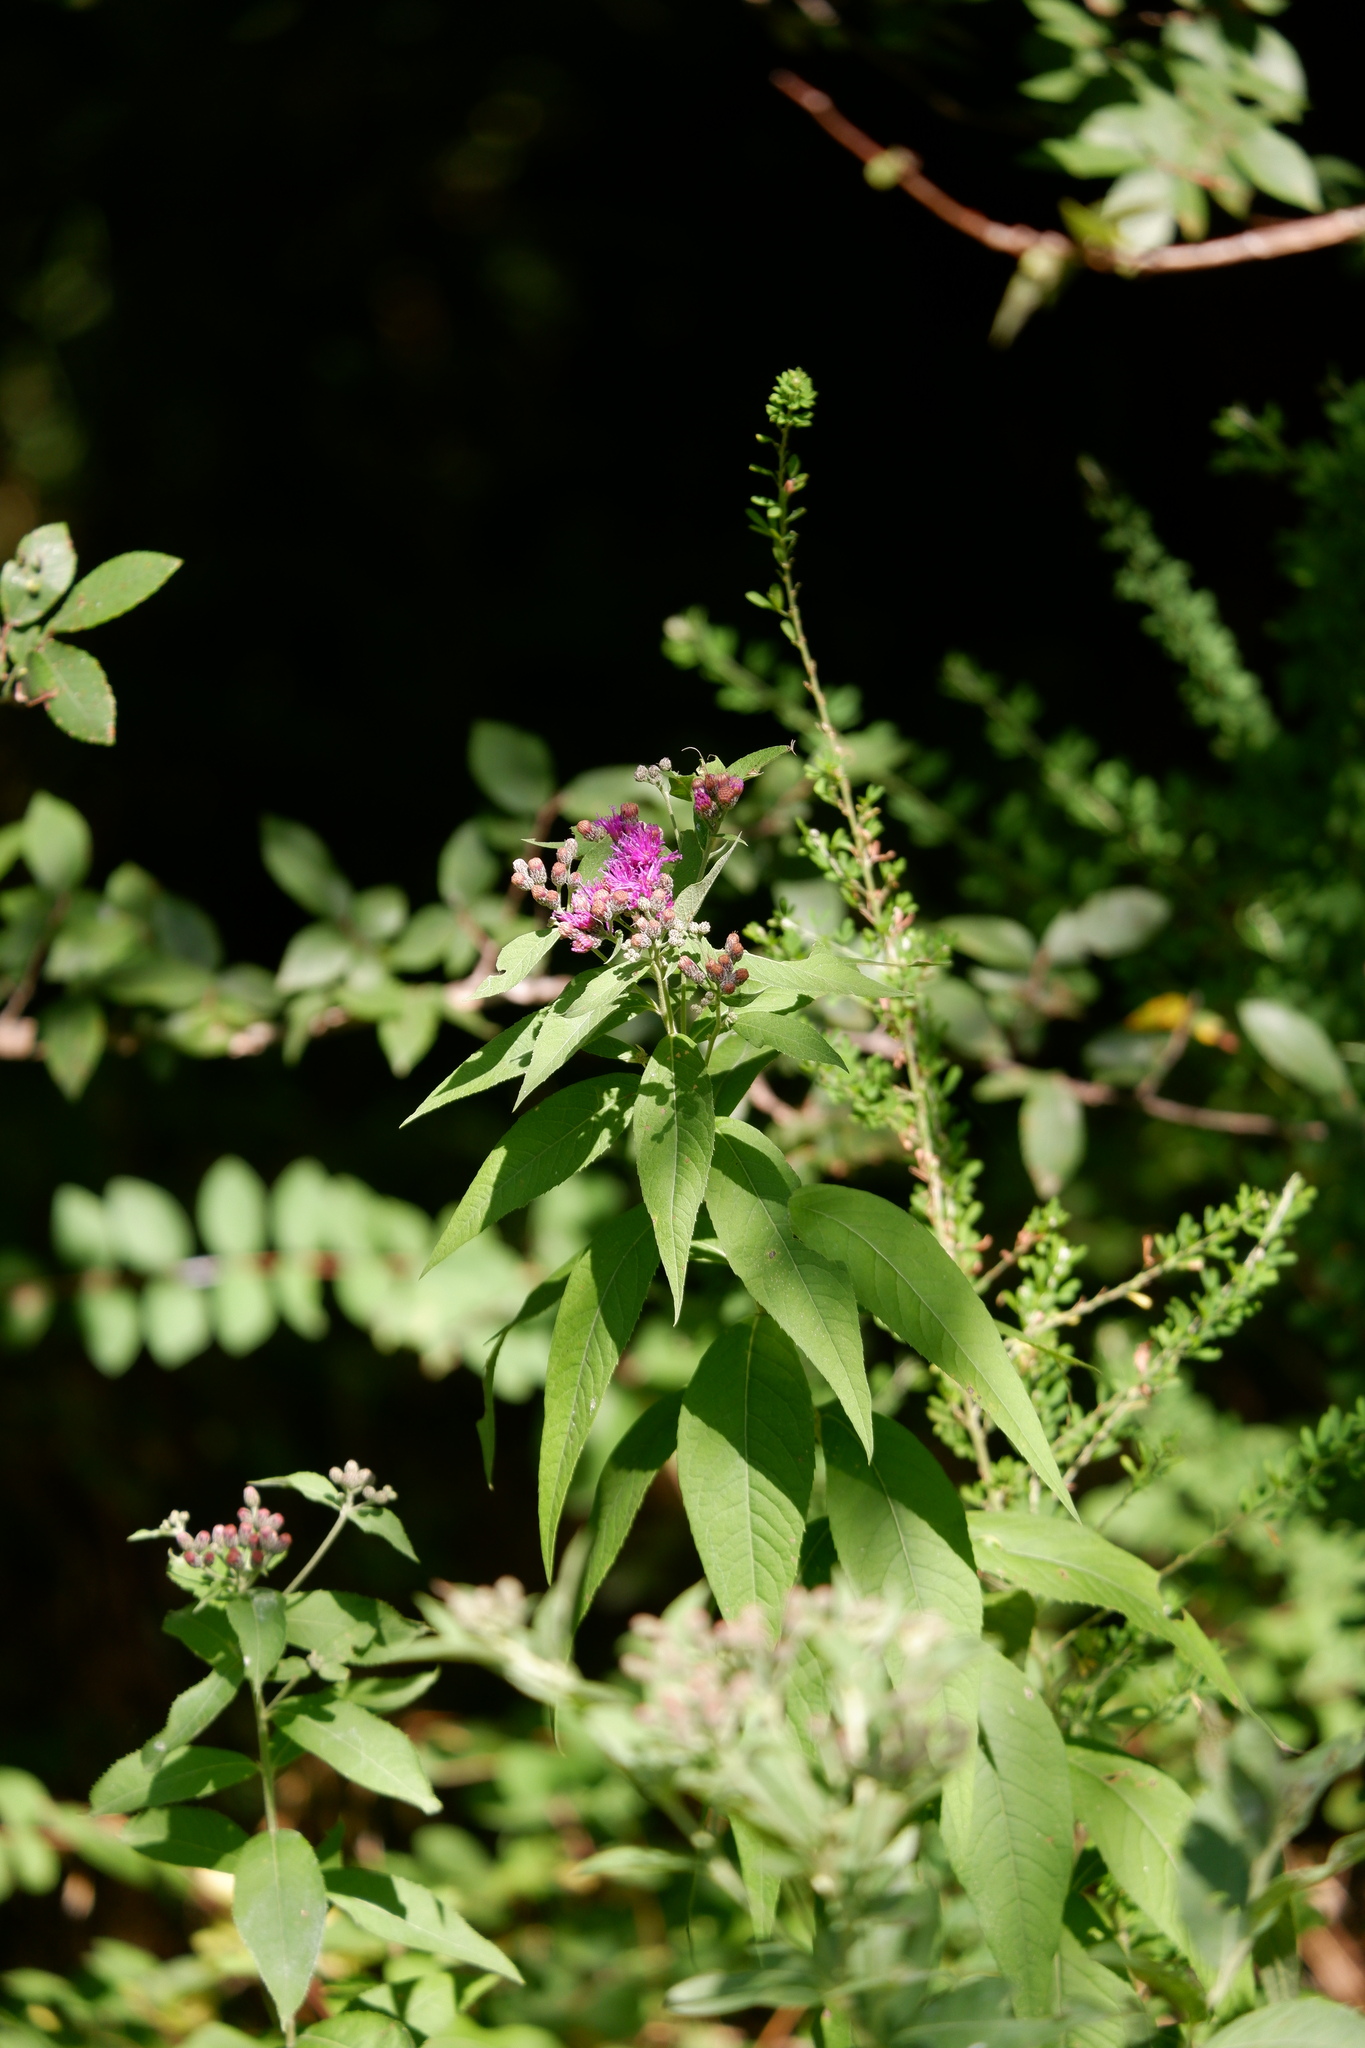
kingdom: Plantae
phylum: Tracheophyta
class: Magnoliopsida
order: Asterales
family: Asteraceae
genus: Vernonia
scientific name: Vernonia baldwinii
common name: Western ironweed
